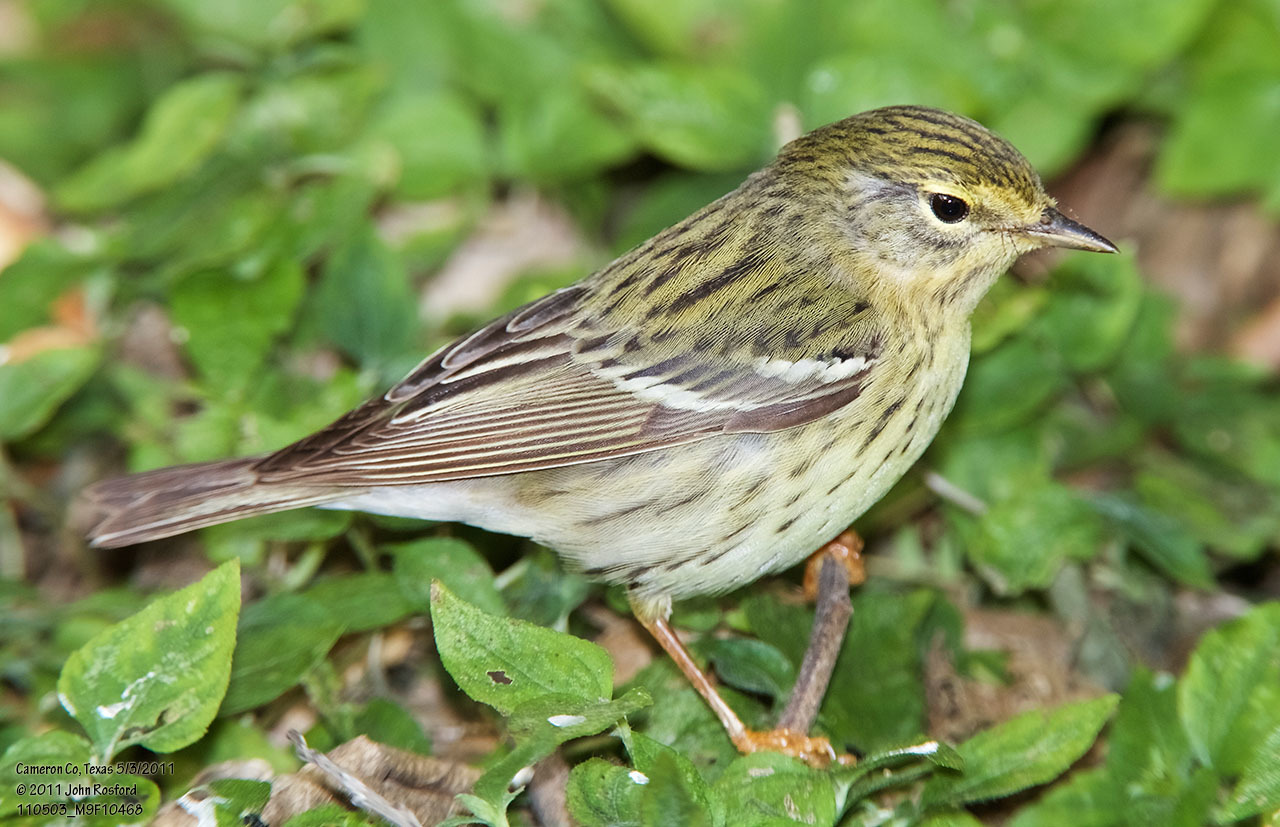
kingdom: Animalia
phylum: Chordata
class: Aves
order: Passeriformes
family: Parulidae
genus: Setophaga
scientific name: Setophaga striata
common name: Blackpoll warbler
